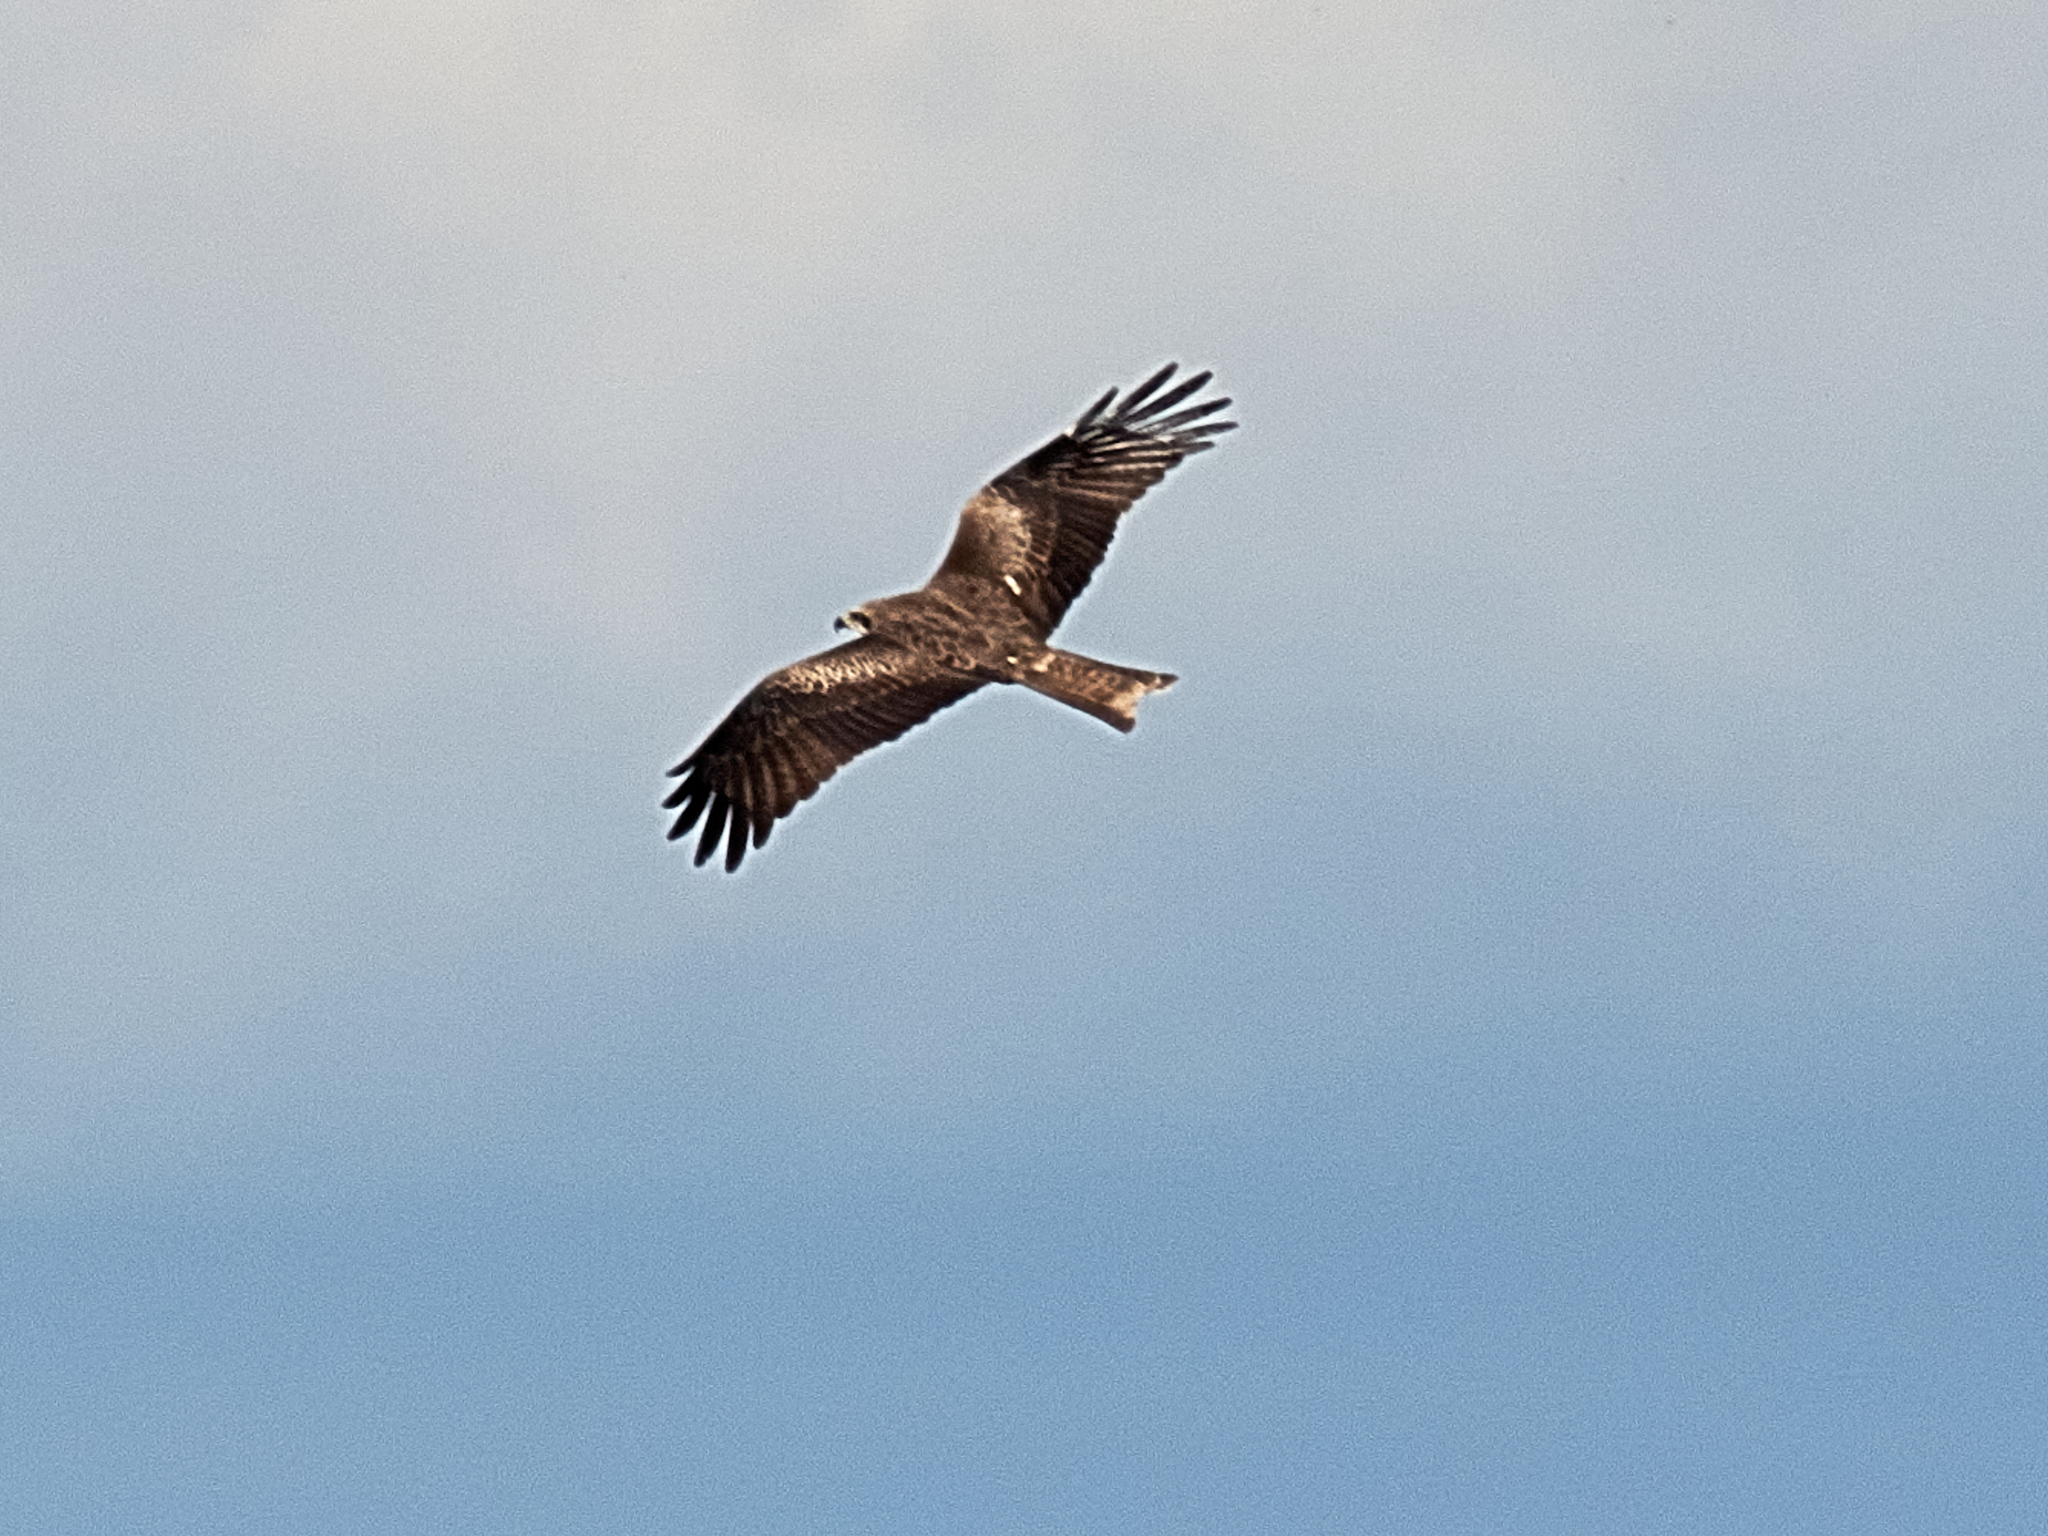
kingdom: Animalia
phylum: Chordata
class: Aves
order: Accipitriformes
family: Accipitridae
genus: Milvus
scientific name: Milvus migrans
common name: Black kite
